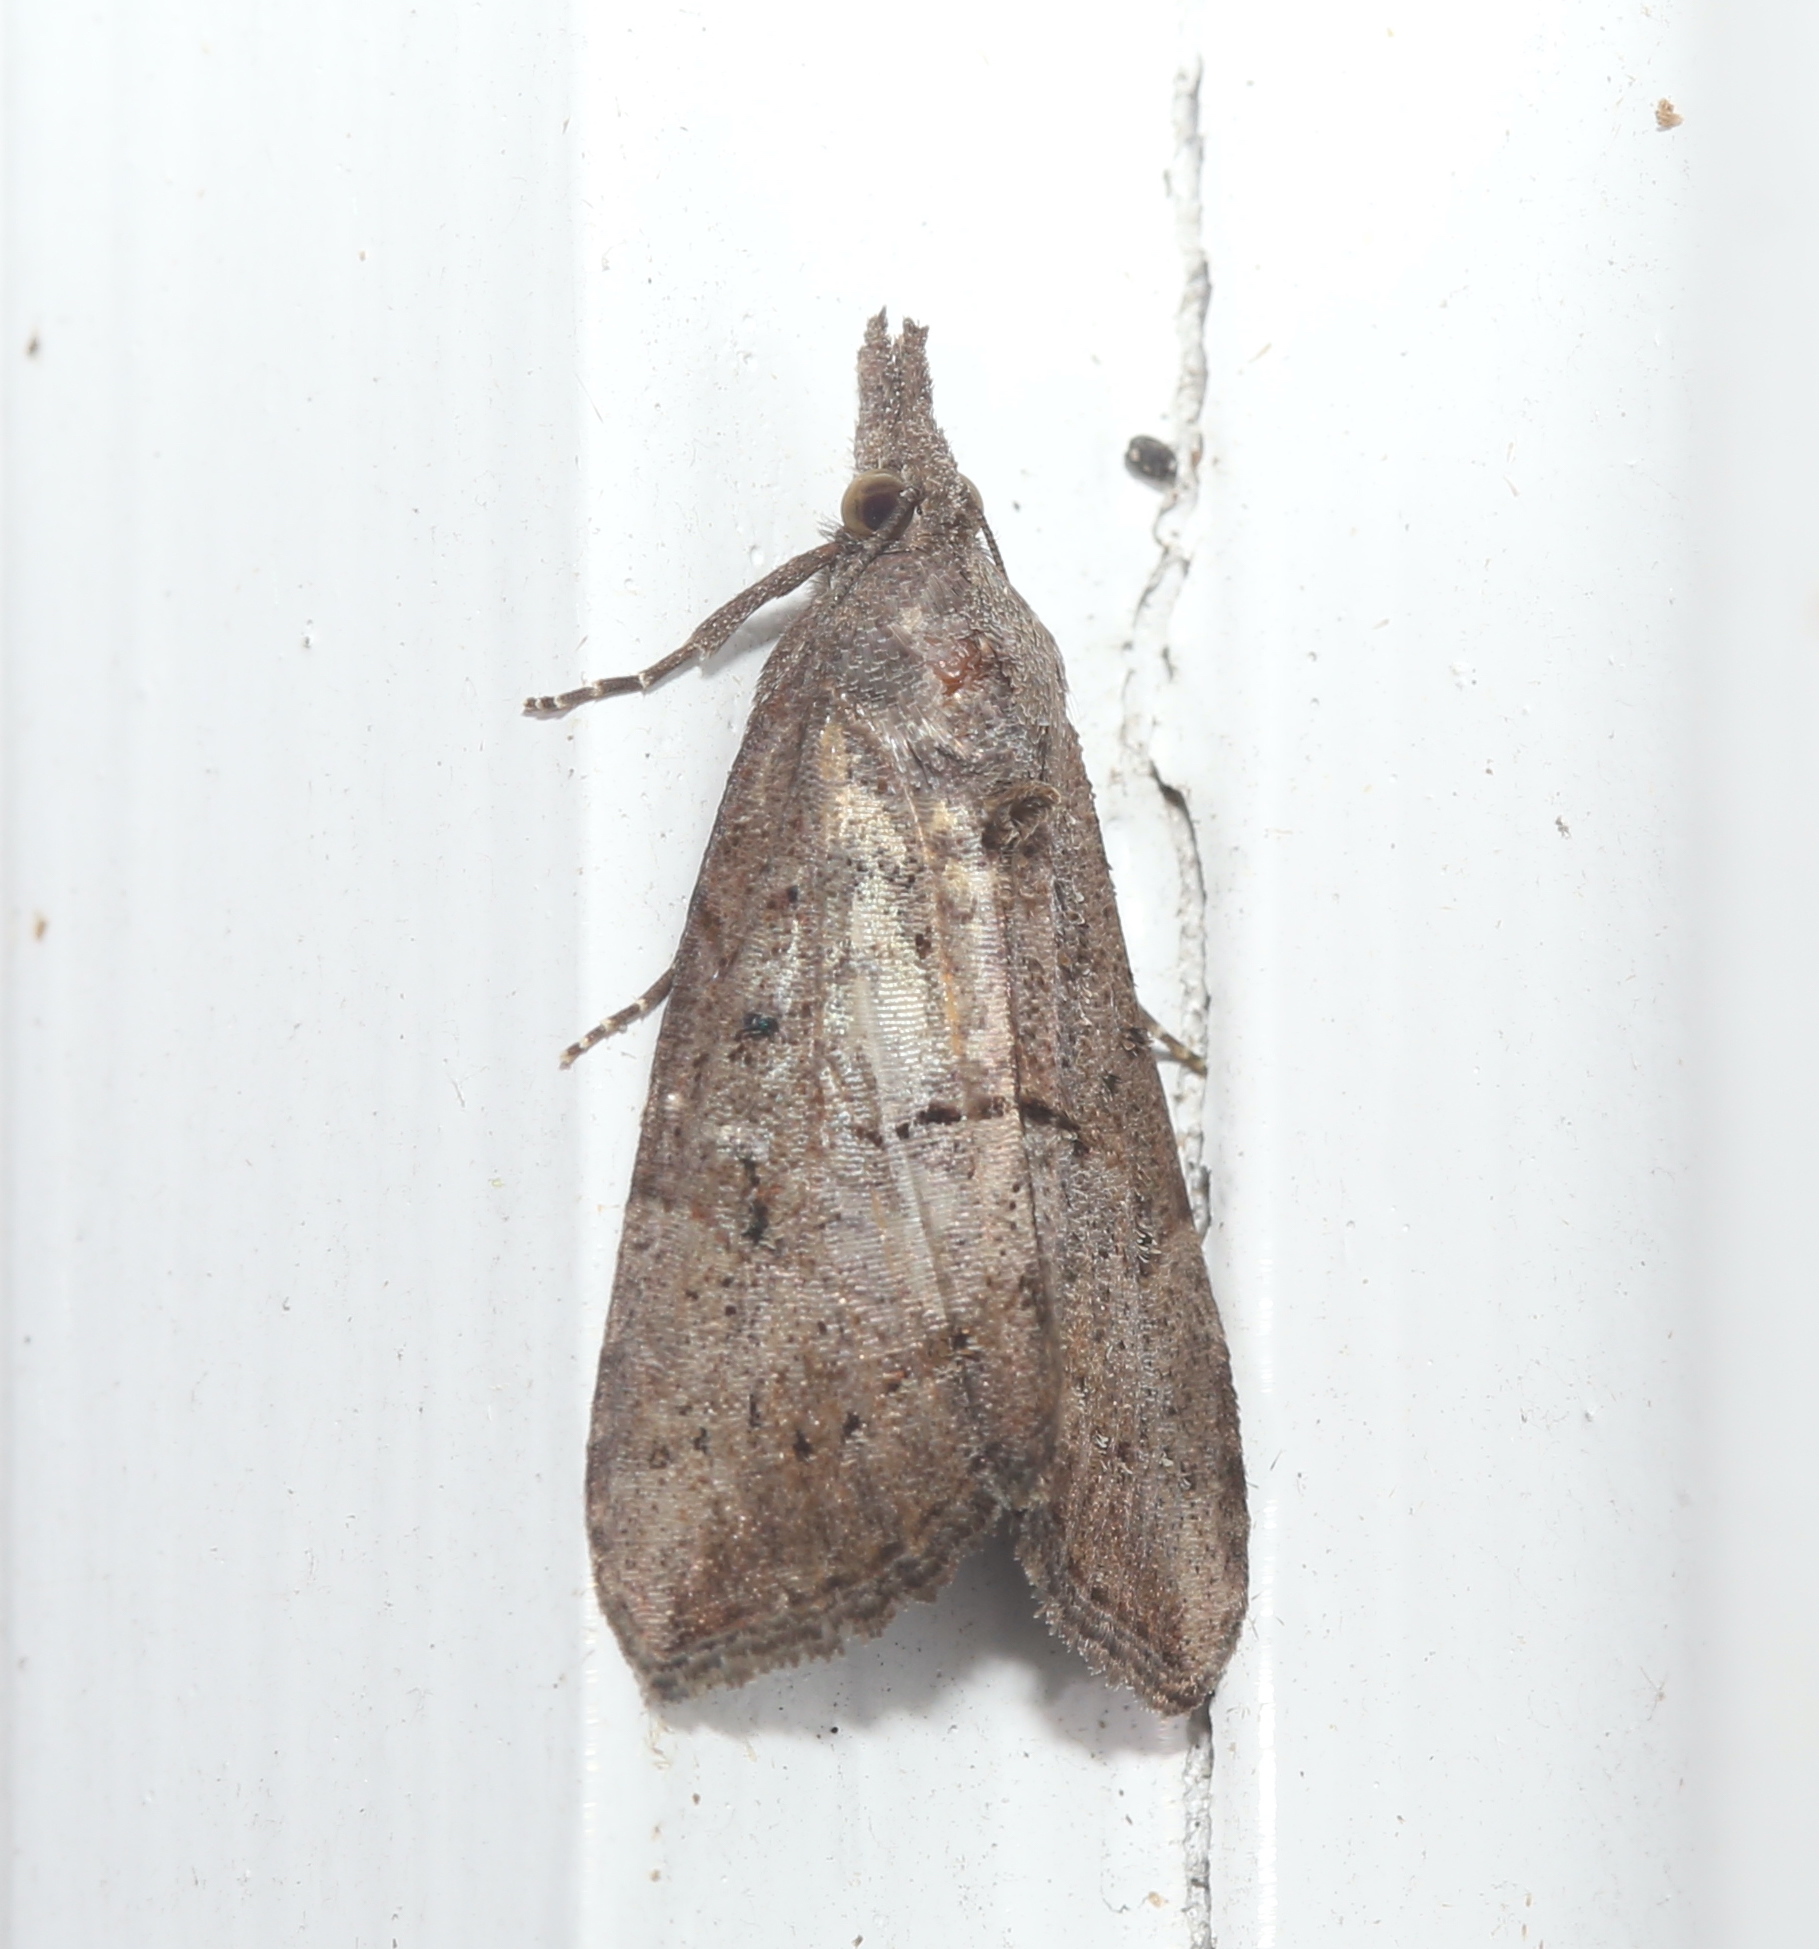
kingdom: Animalia
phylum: Arthropoda
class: Insecta
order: Lepidoptera
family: Erebidae
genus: Hypena
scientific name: Hypena scabra
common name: Green cloverworm
